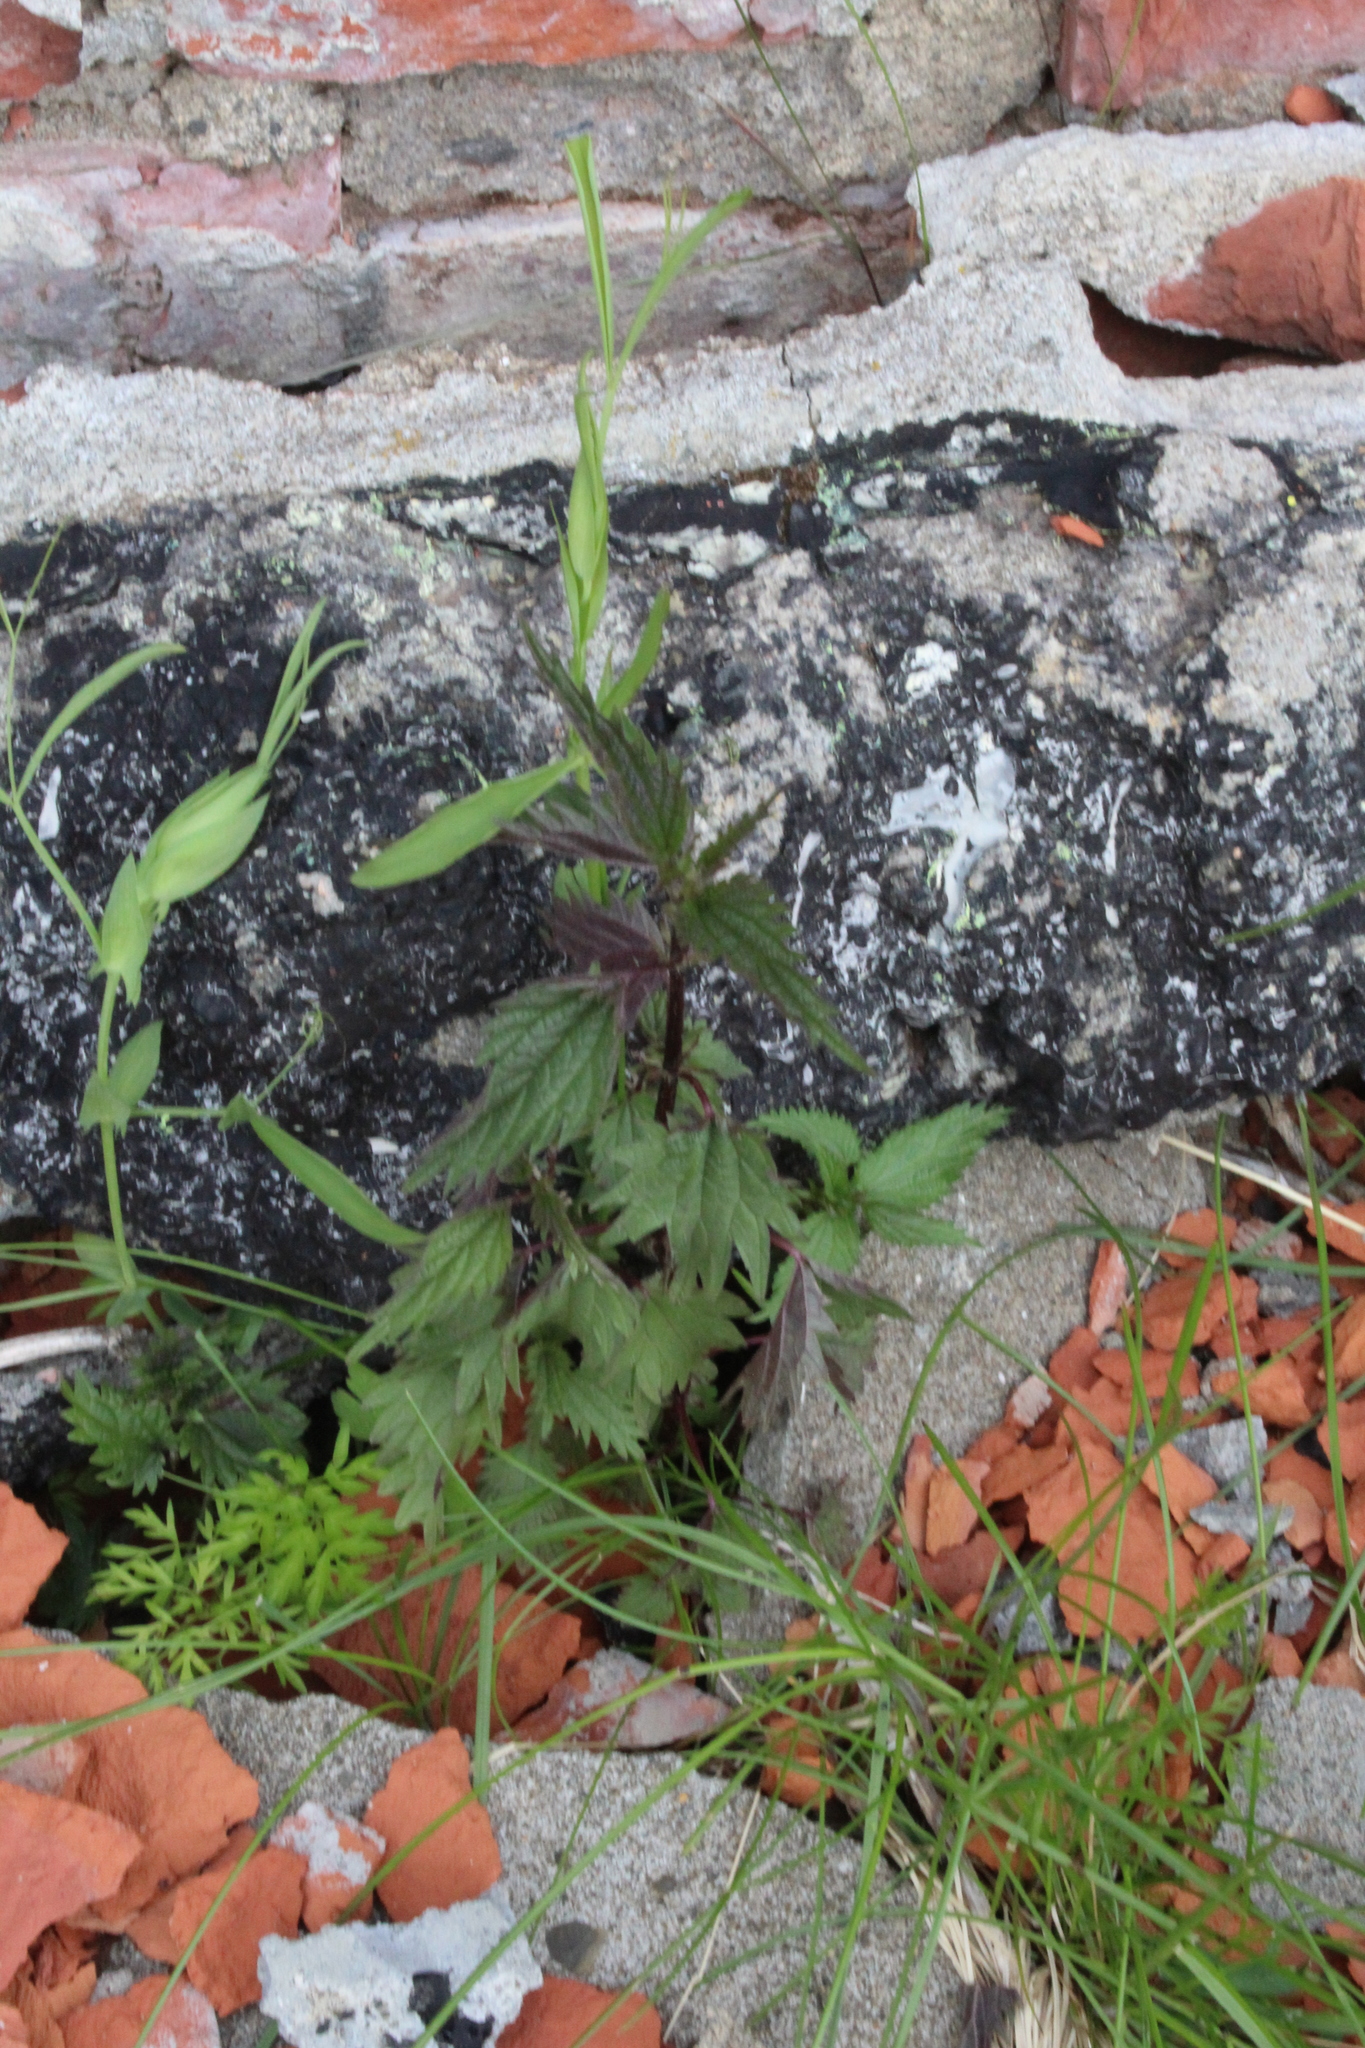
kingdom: Plantae
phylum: Tracheophyta
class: Magnoliopsida
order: Rosales
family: Urticaceae
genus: Urtica
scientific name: Urtica dioica
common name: Common nettle
